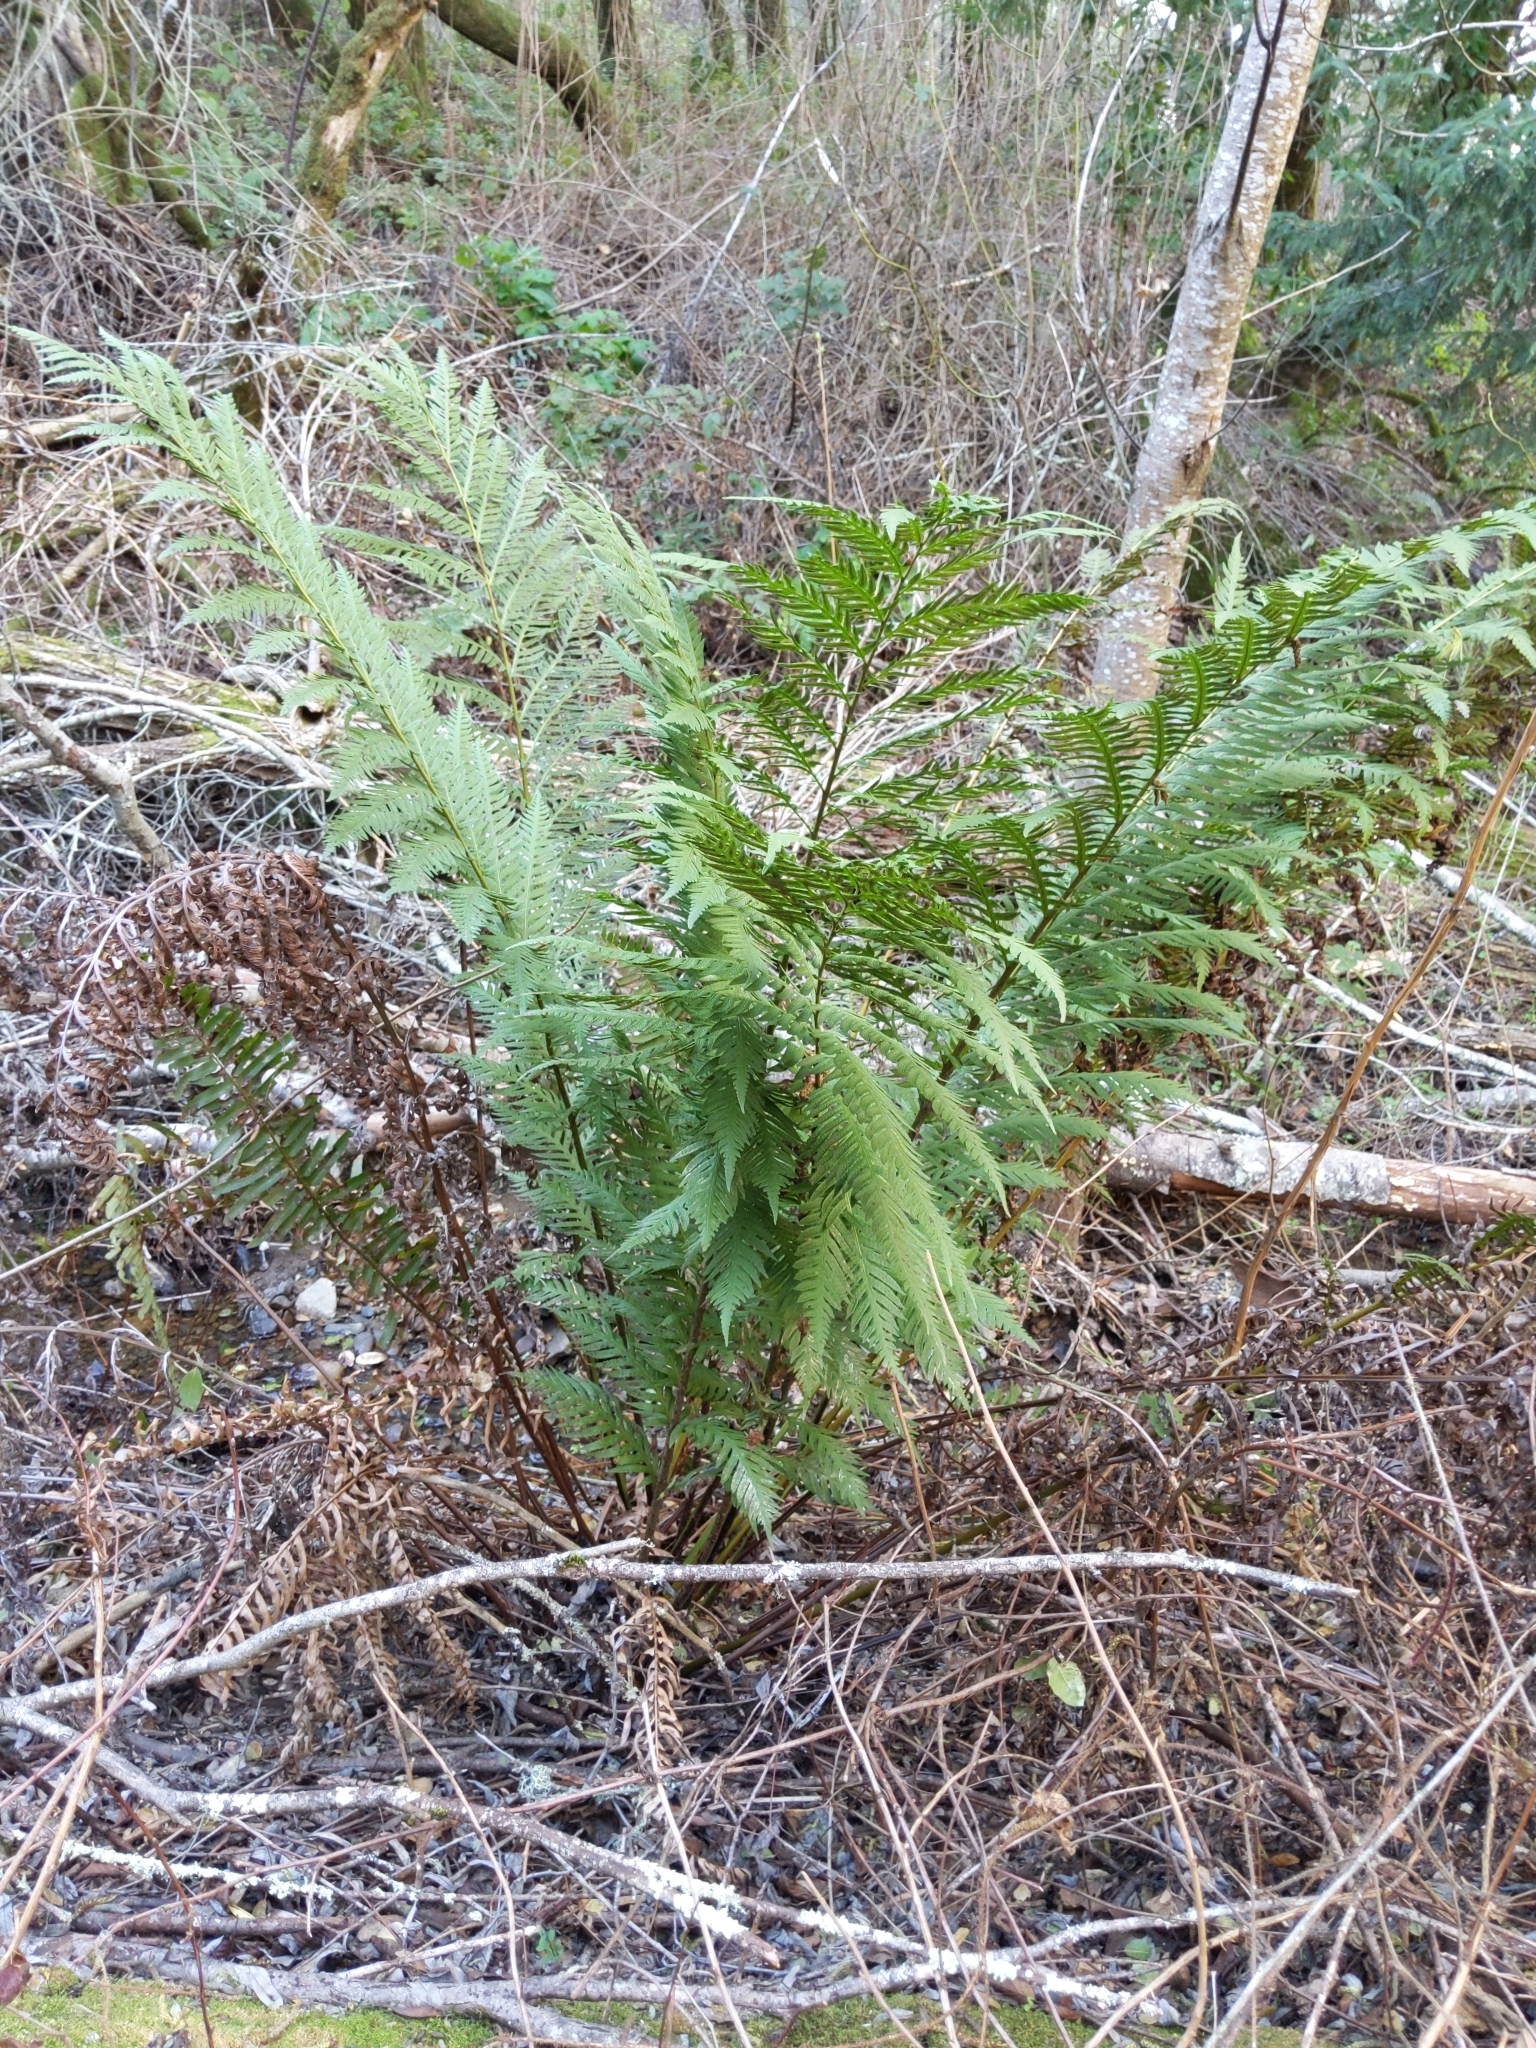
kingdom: Plantae
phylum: Tracheophyta
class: Polypodiopsida
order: Polypodiales
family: Blechnaceae
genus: Woodwardia
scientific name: Woodwardia fimbriata
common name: Giant chain fern
